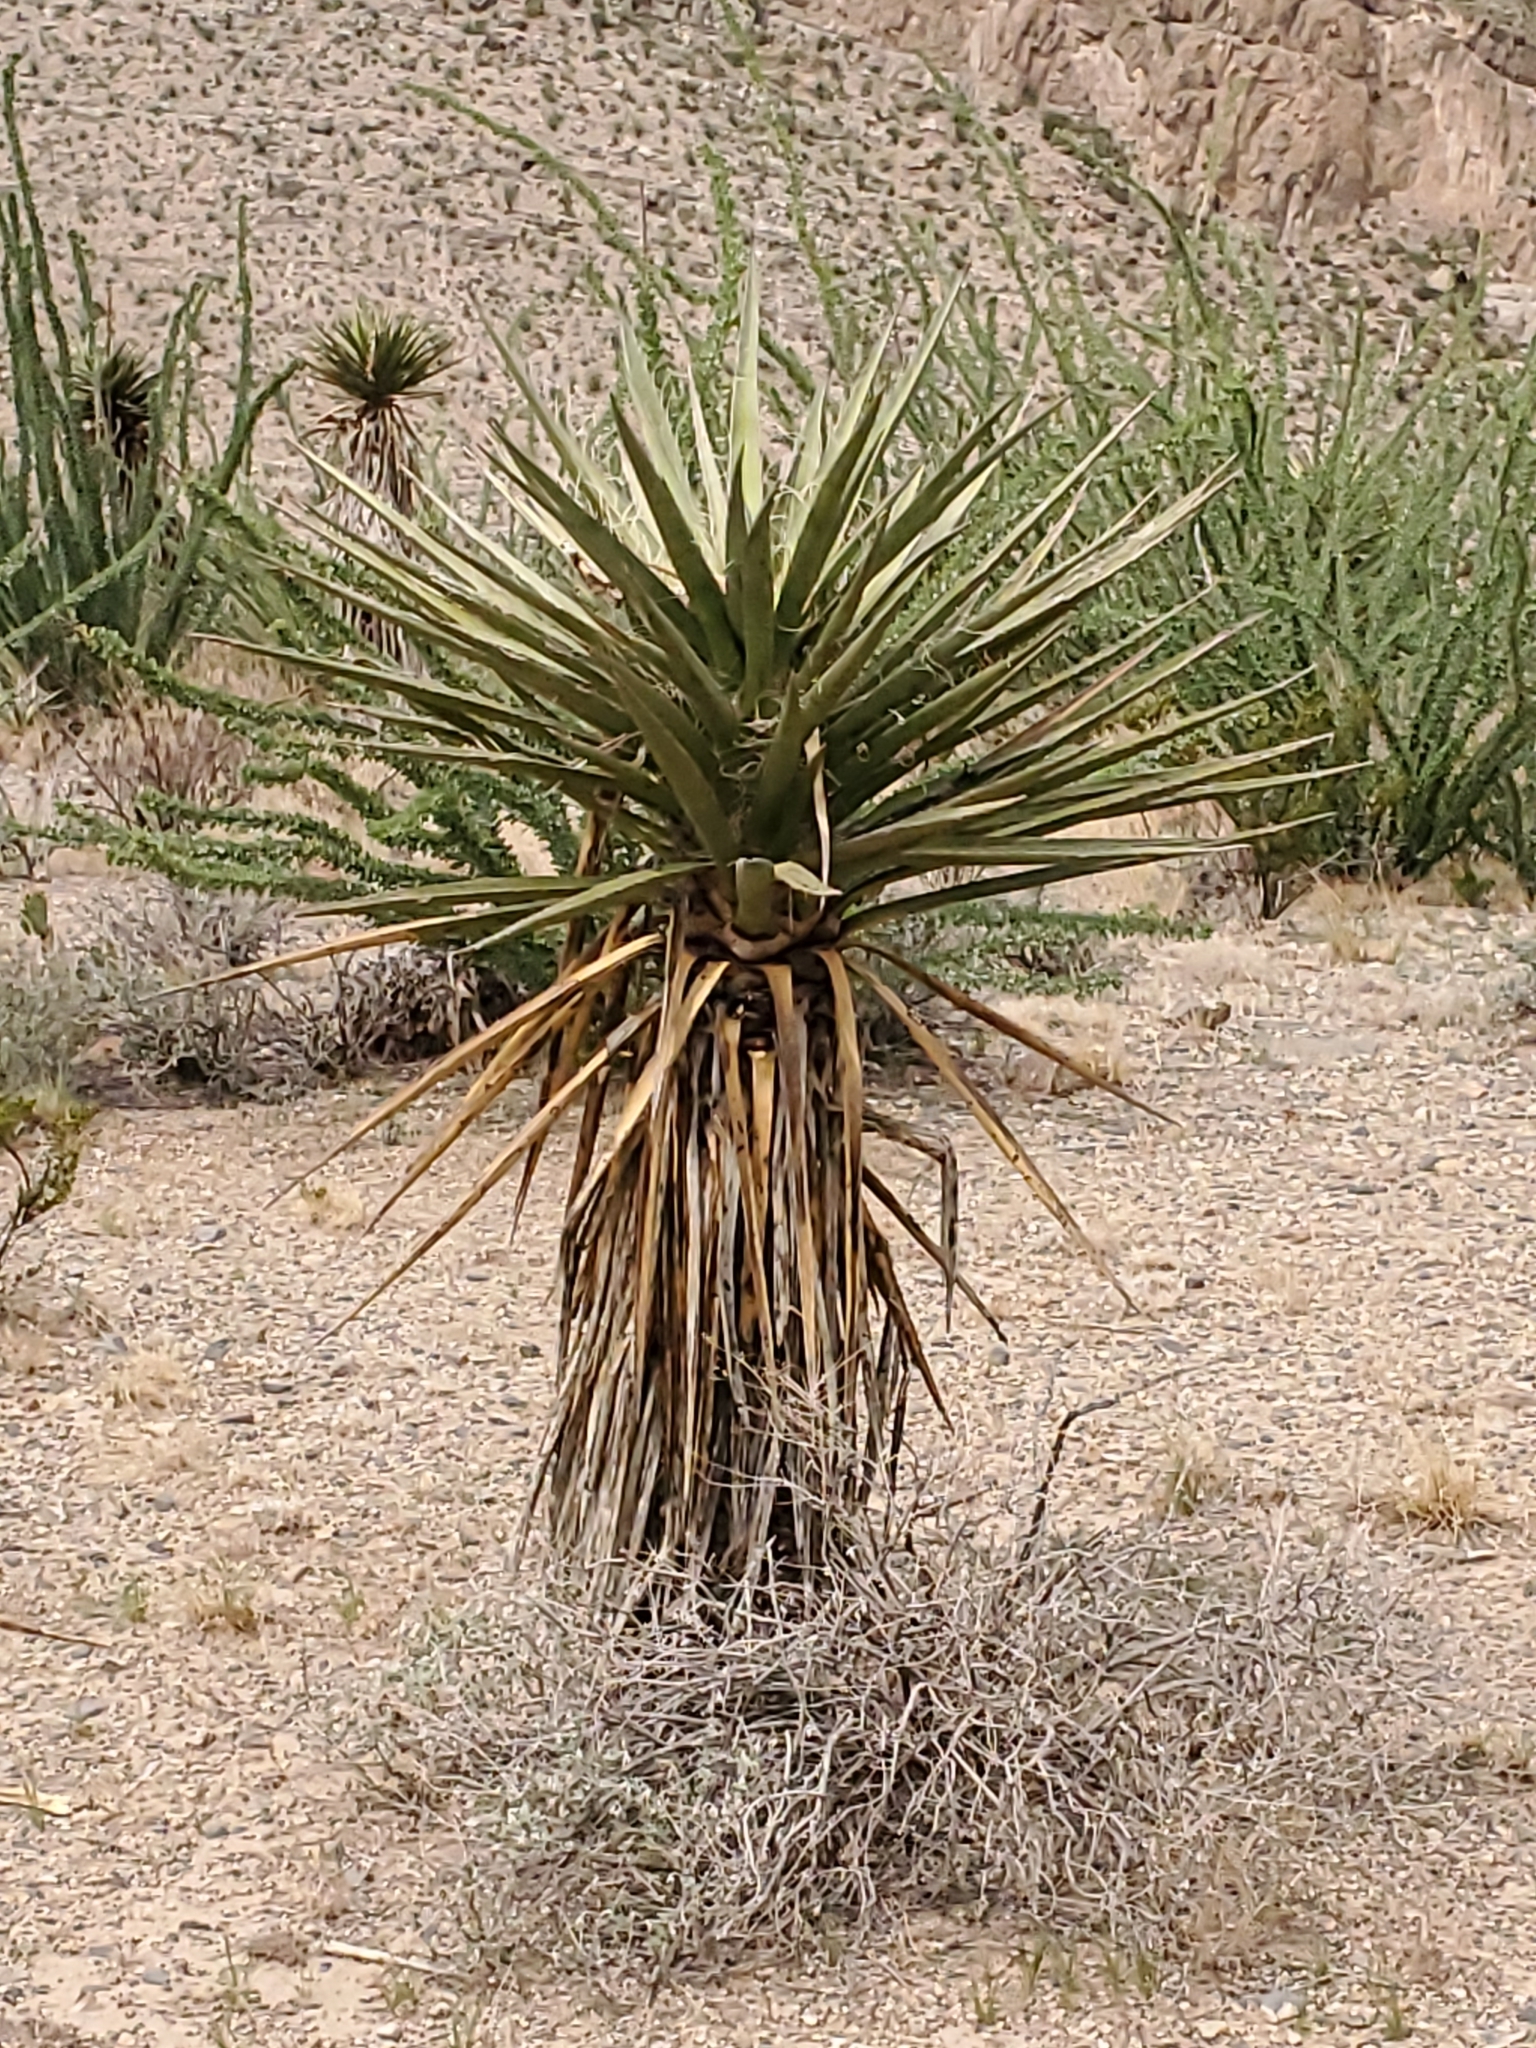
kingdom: Plantae
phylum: Tracheophyta
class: Liliopsida
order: Asparagales
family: Asparagaceae
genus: Yucca
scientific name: Yucca treculiana
